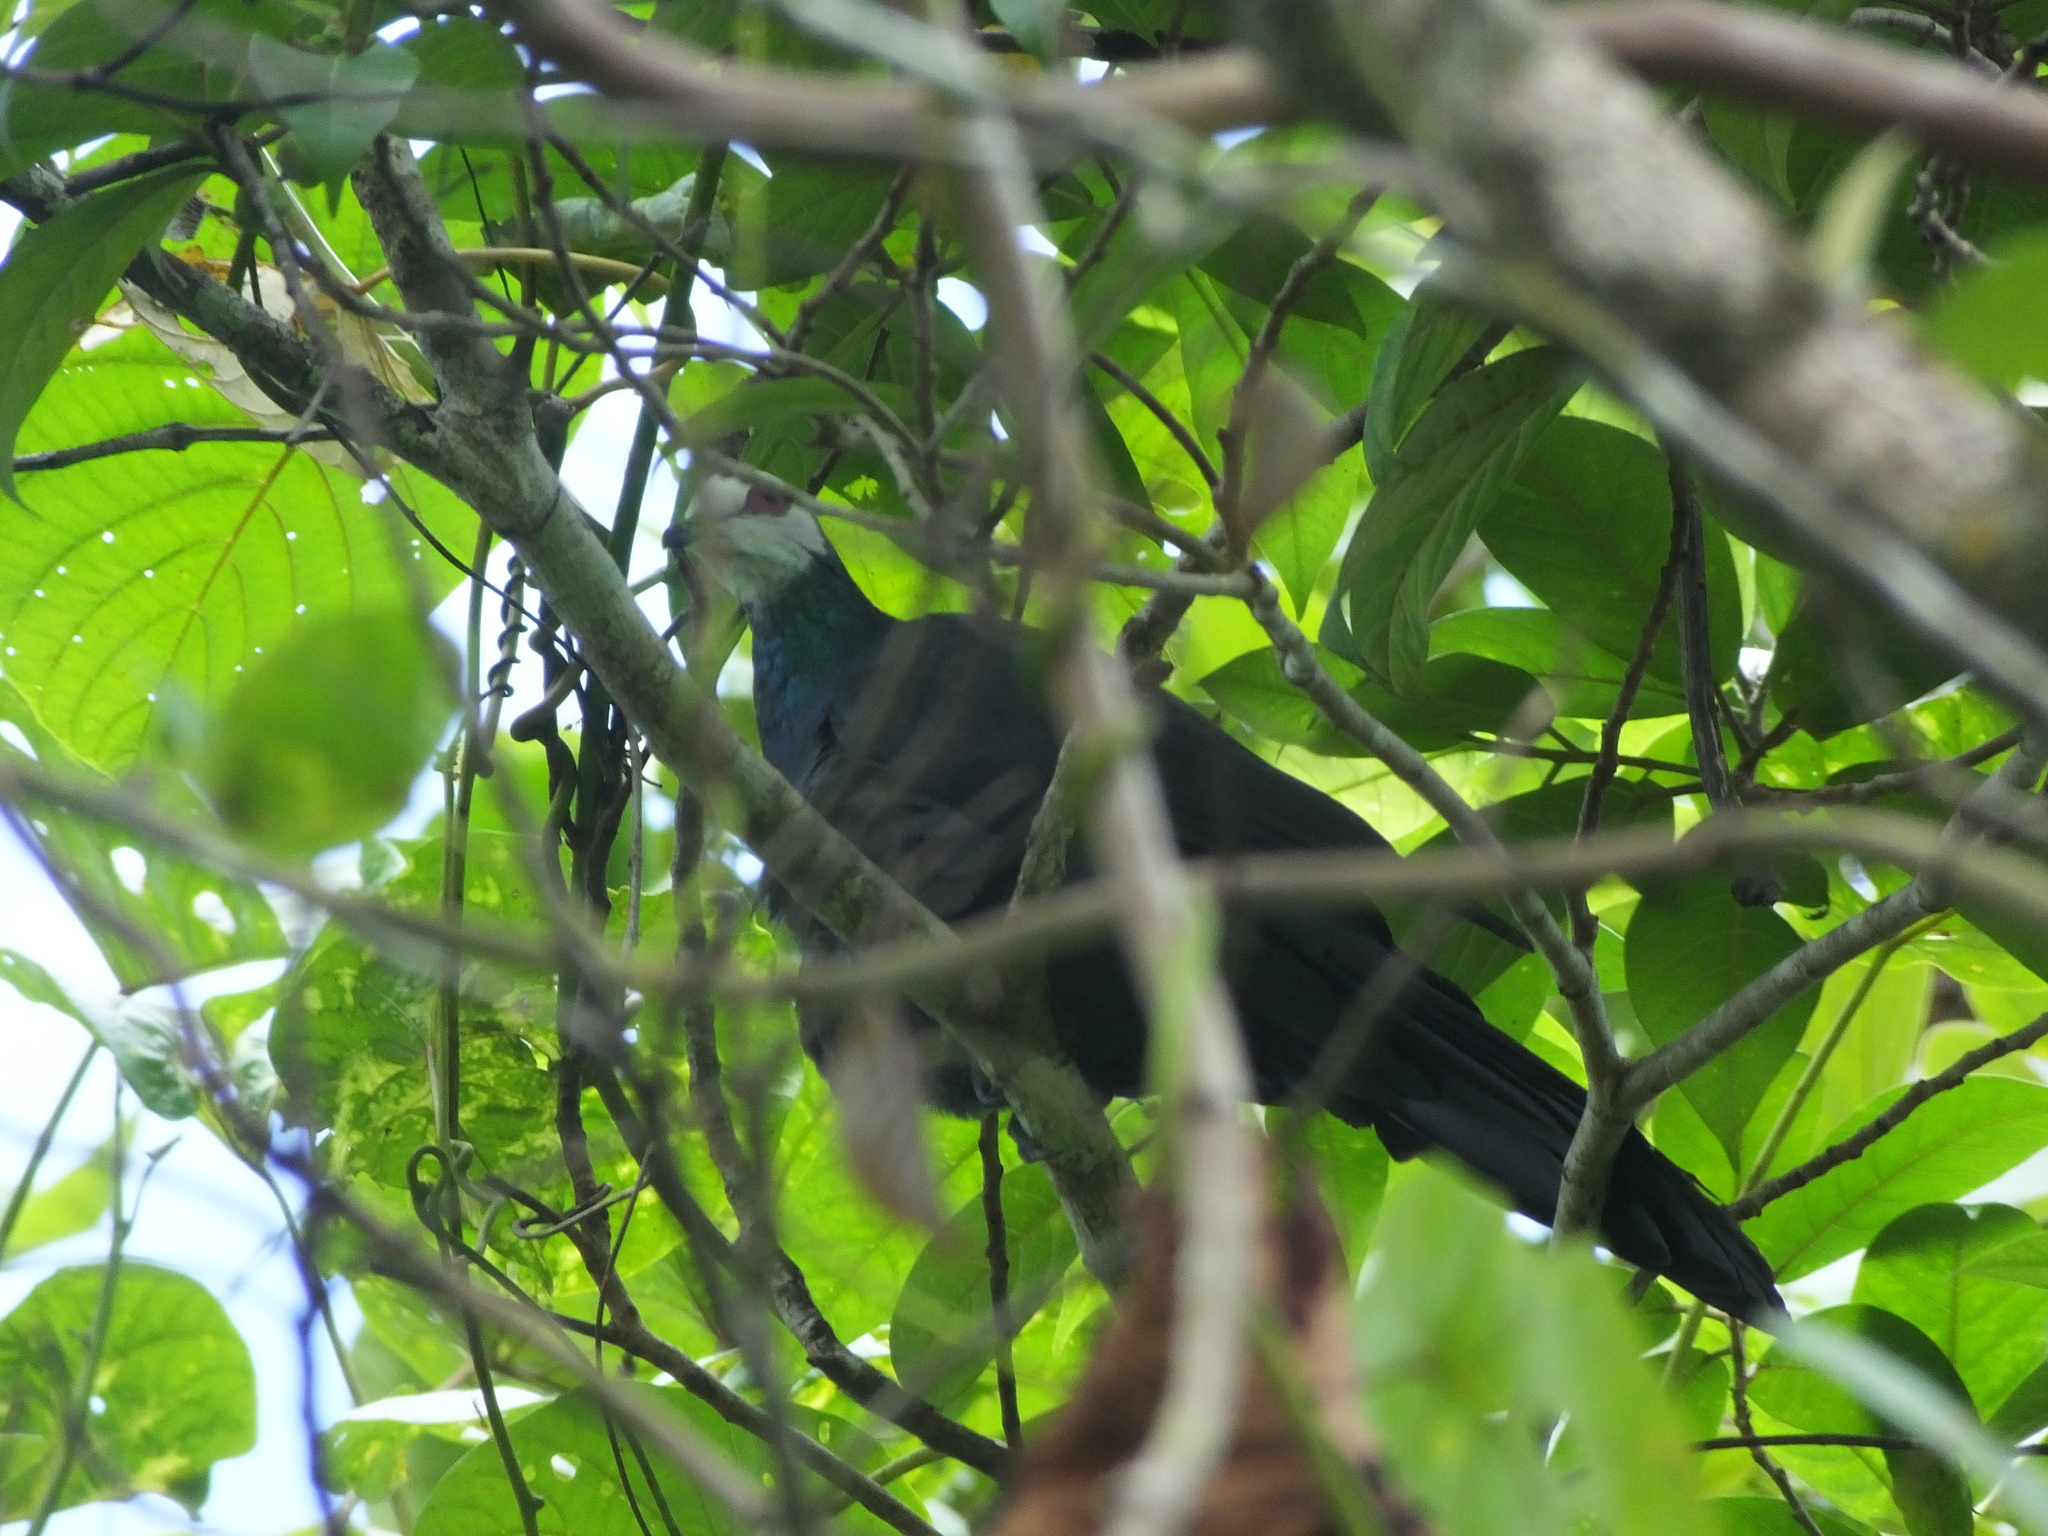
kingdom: Animalia
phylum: Chordata
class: Aves
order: Columbiformes
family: Columbidae
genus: Turacoena
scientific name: Turacoena manadensis
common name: White-faced cuckoo-dove
